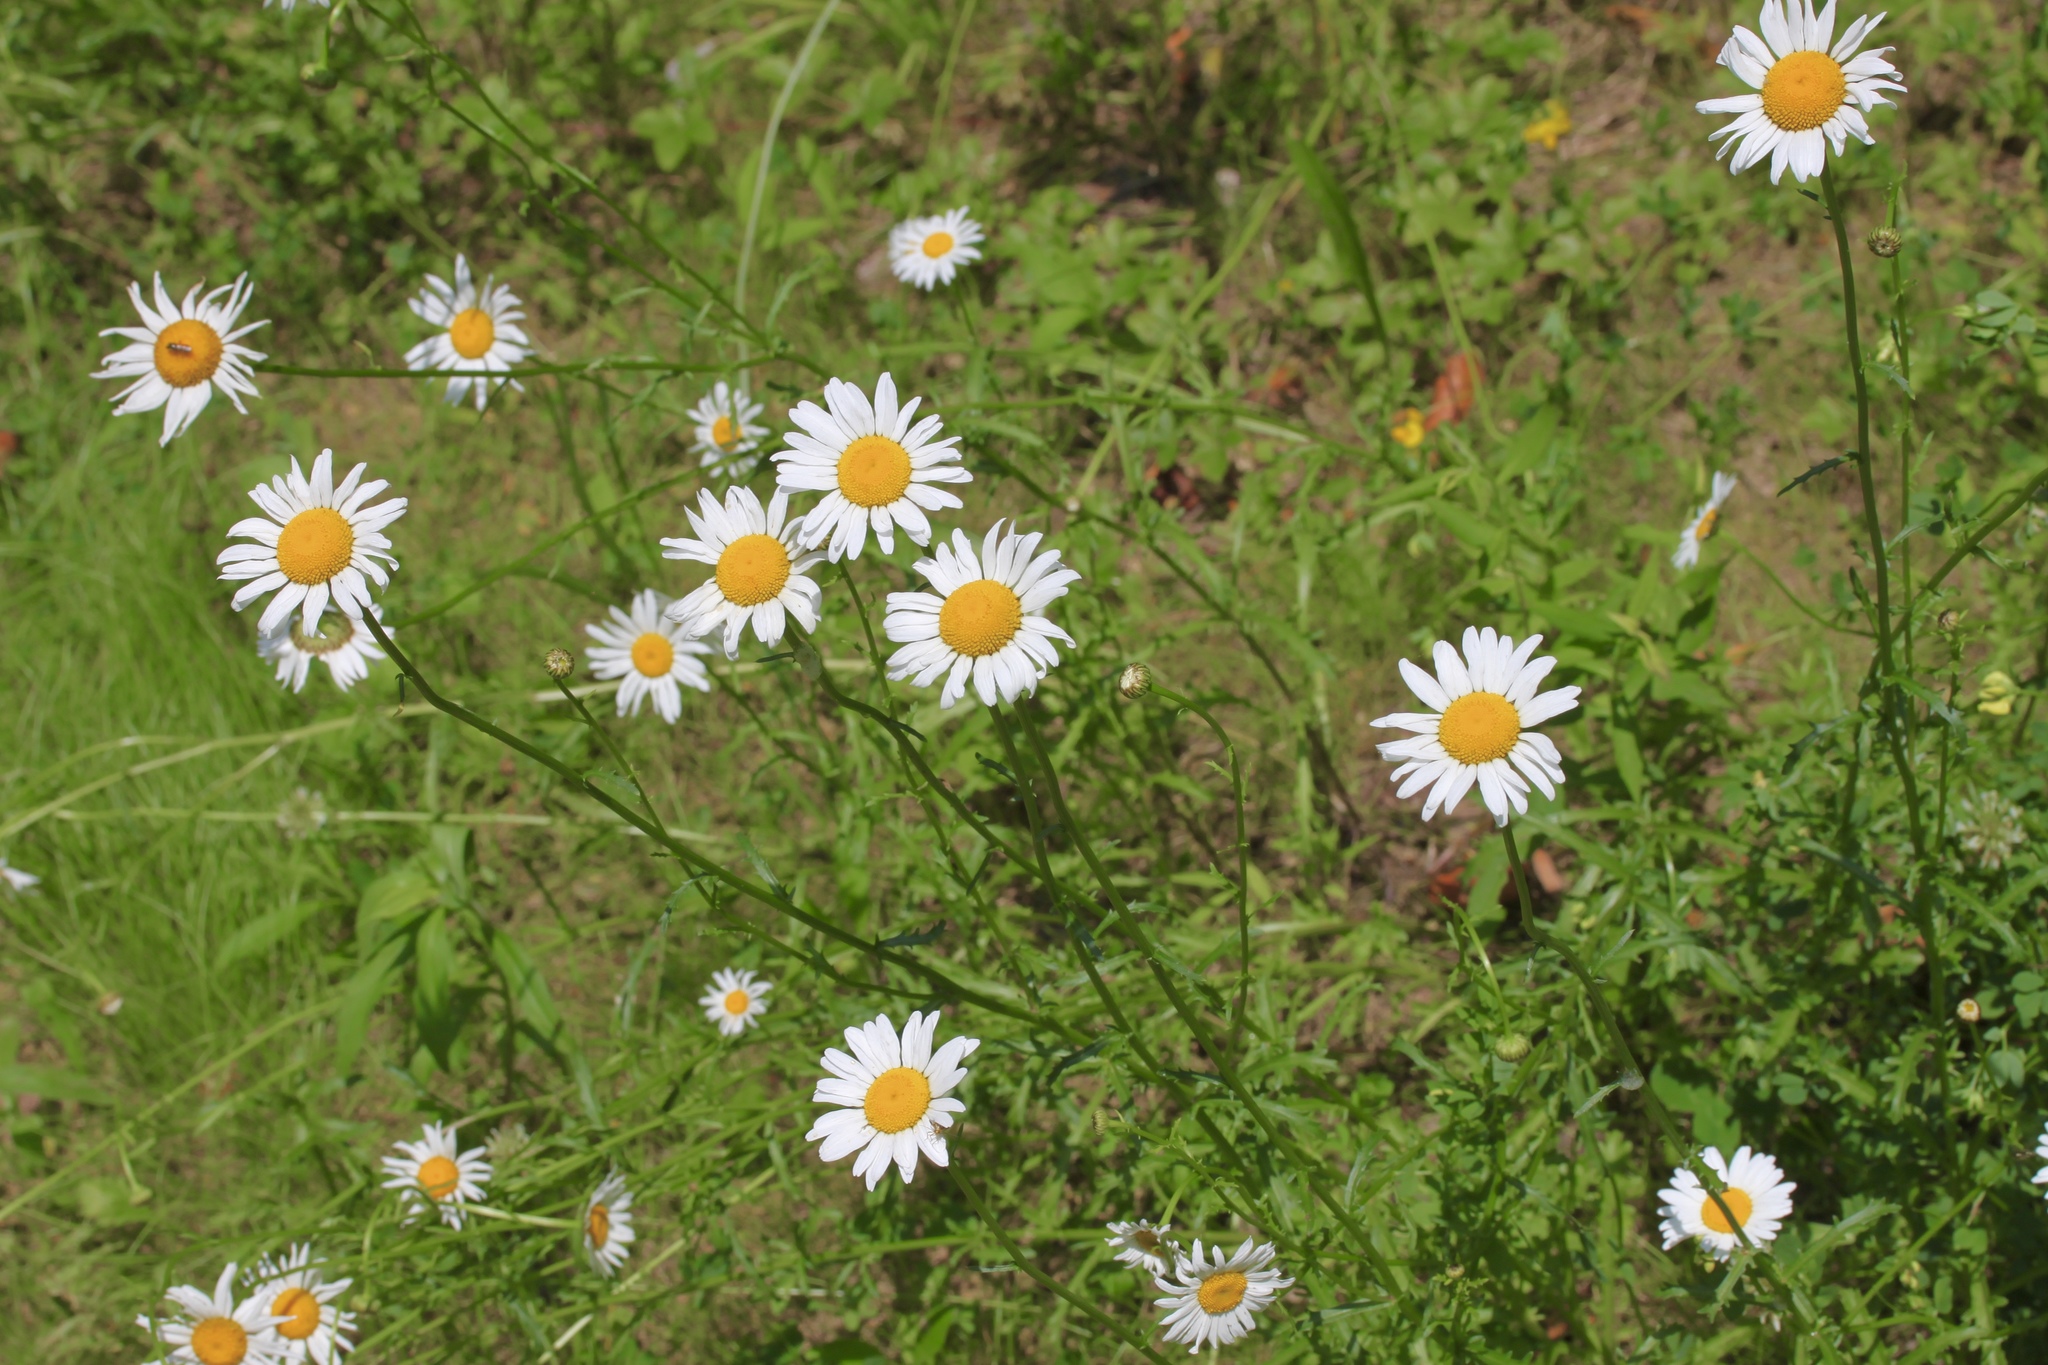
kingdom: Plantae
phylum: Tracheophyta
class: Magnoliopsida
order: Asterales
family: Asteraceae
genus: Leucanthemum
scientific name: Leucanthemum vulgare
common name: Oxeye daisy
